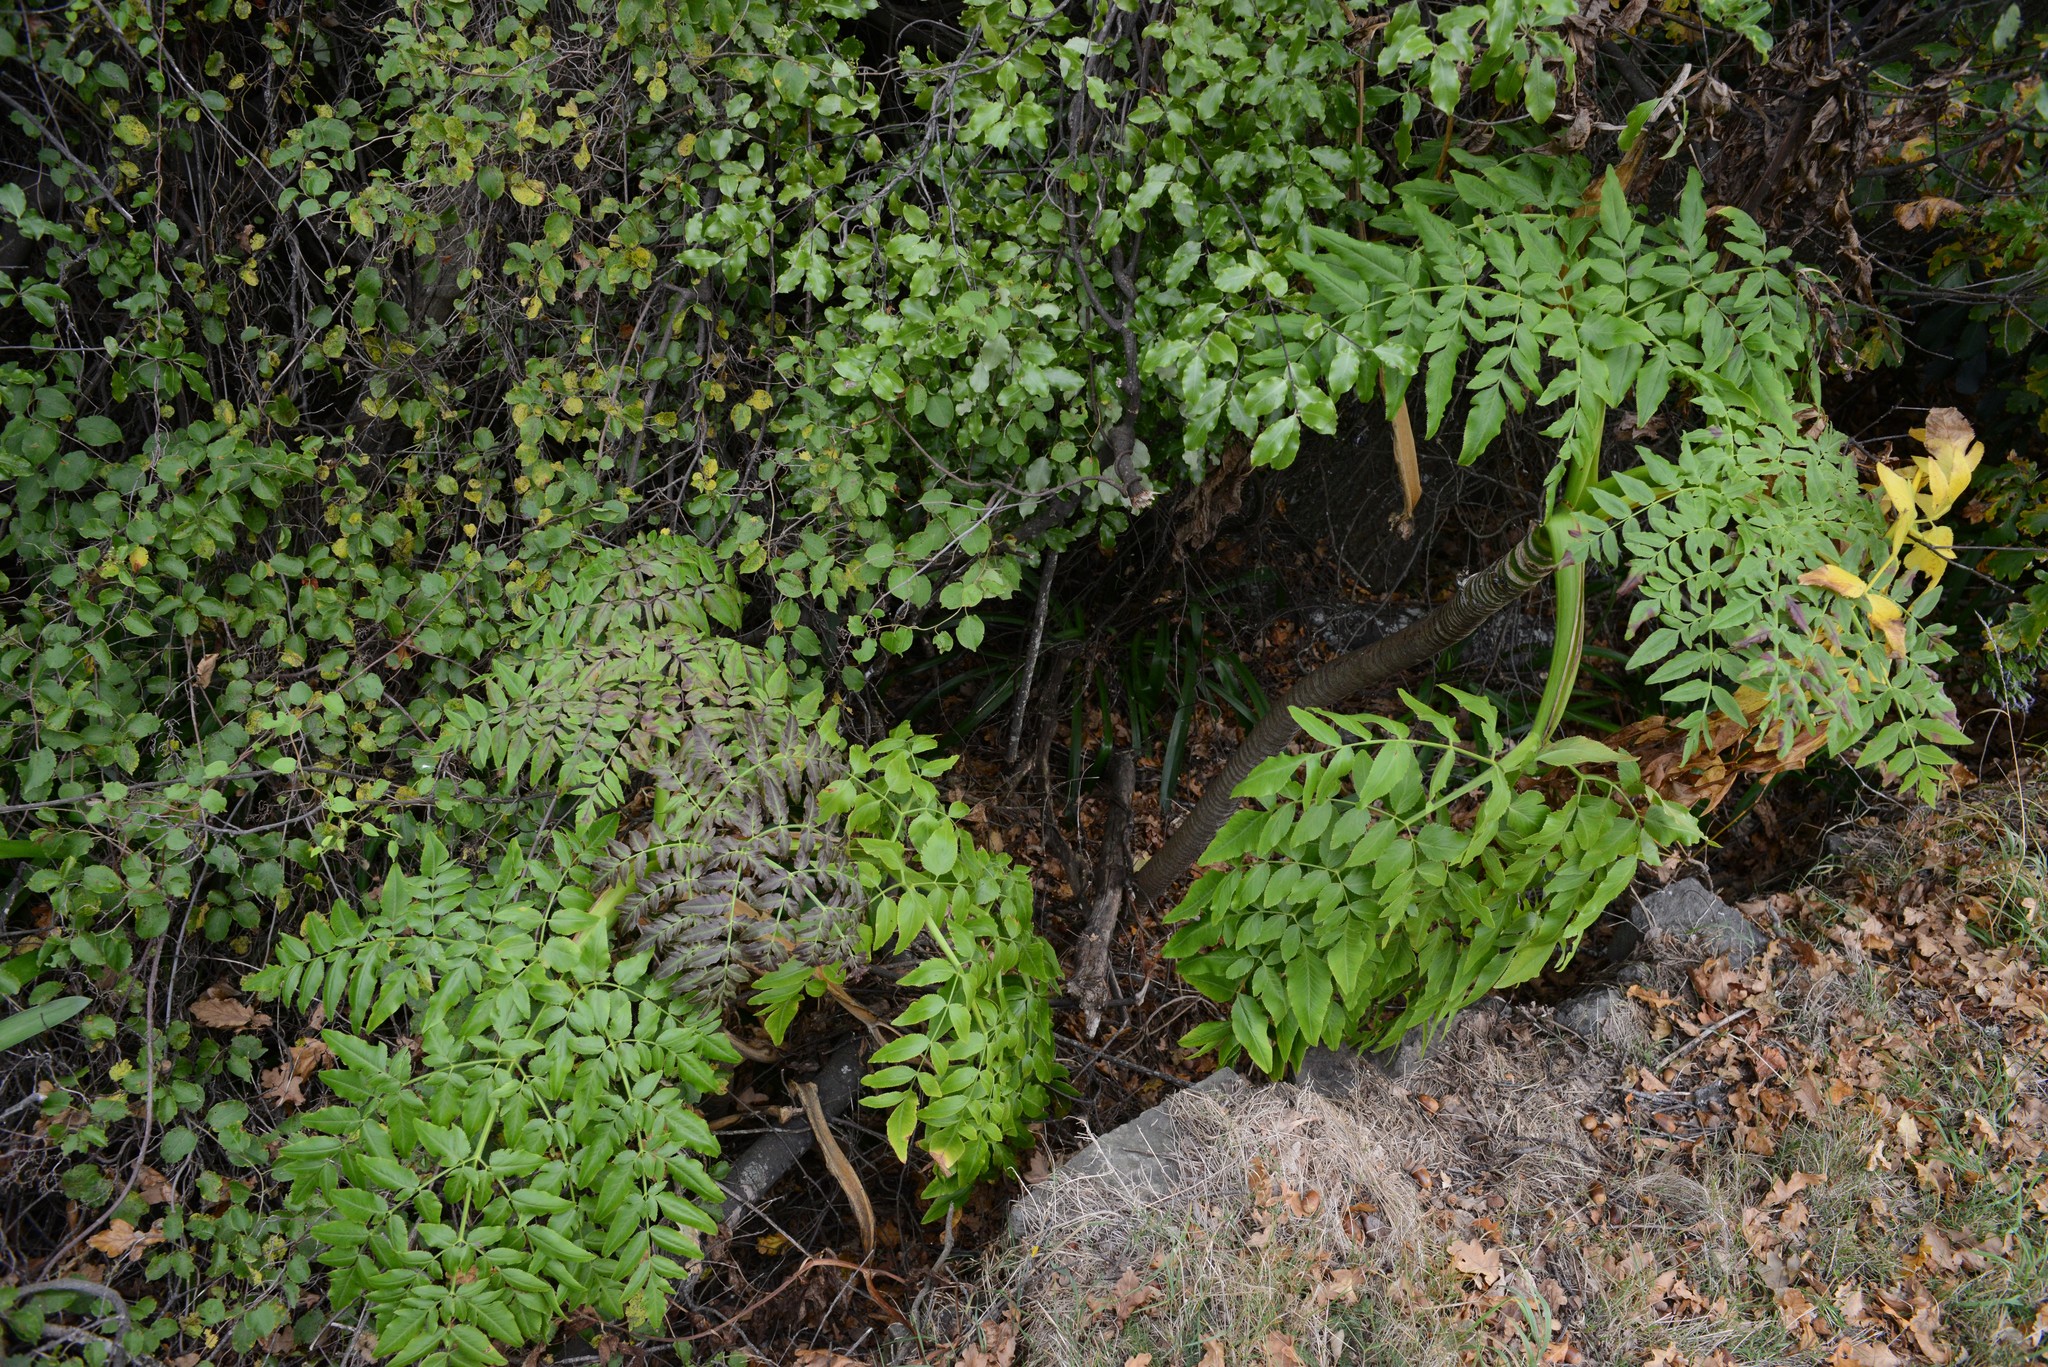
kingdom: Plantae
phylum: Tracheophyta
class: Magnoliopsida
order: Apiales
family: Apiaceae
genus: Daucus
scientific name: Daucus decipiens
